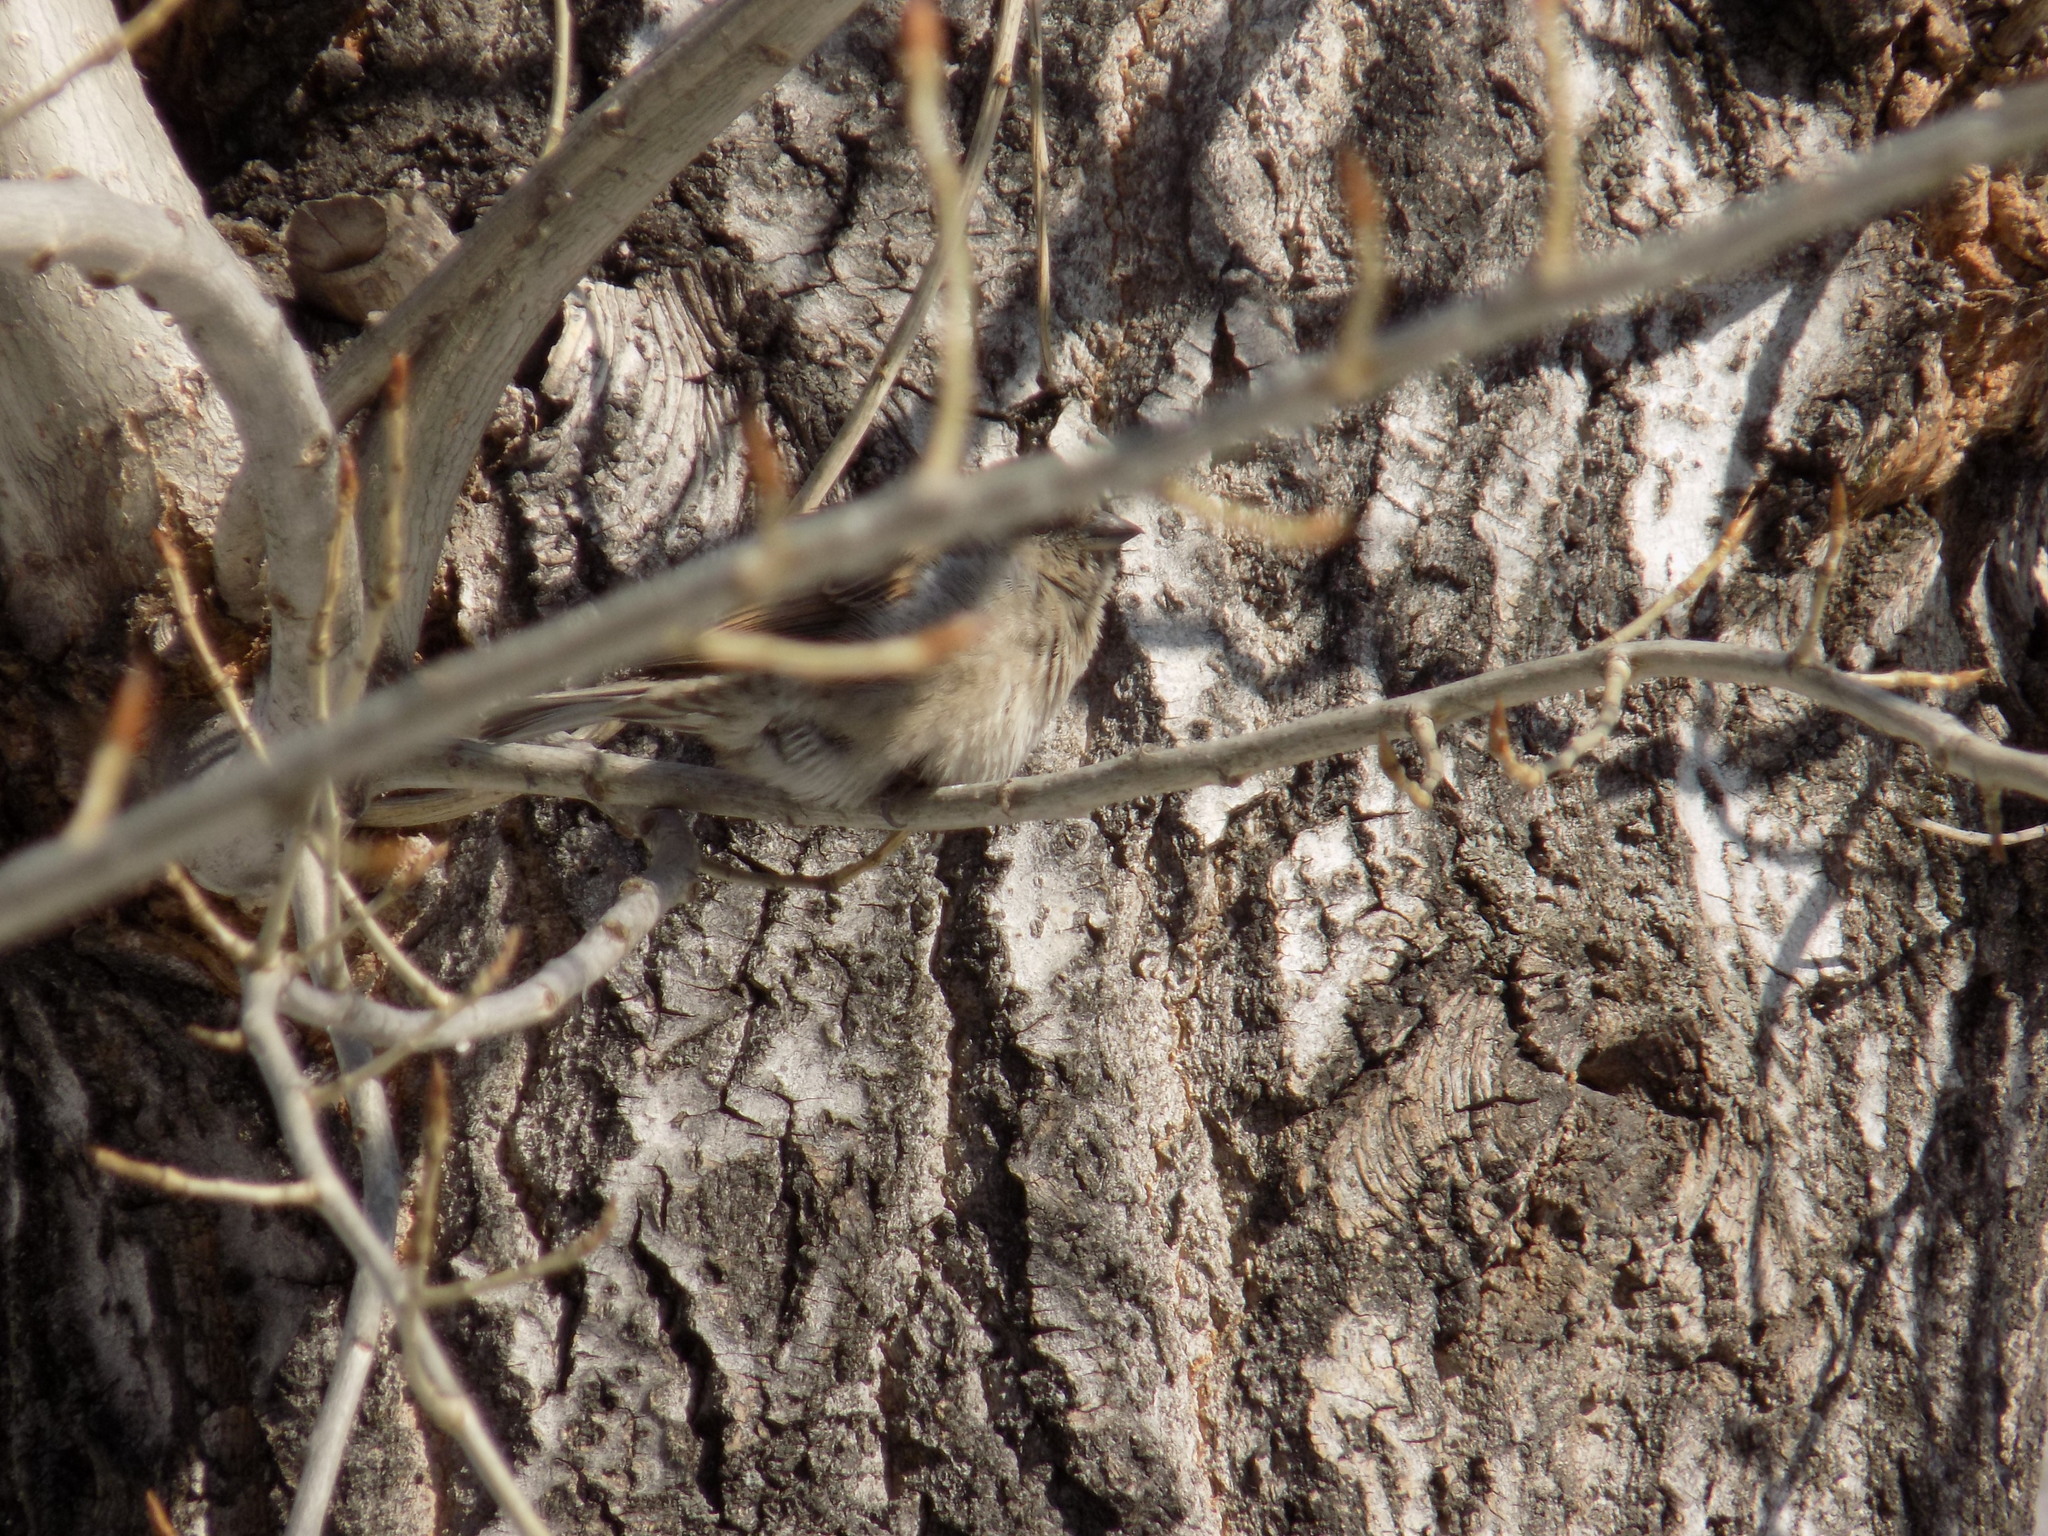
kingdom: Animalia
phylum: Chordata
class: Aves
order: Passeriformes
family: Passeridae
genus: Passer
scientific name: Passer domesticus
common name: House sparrow
